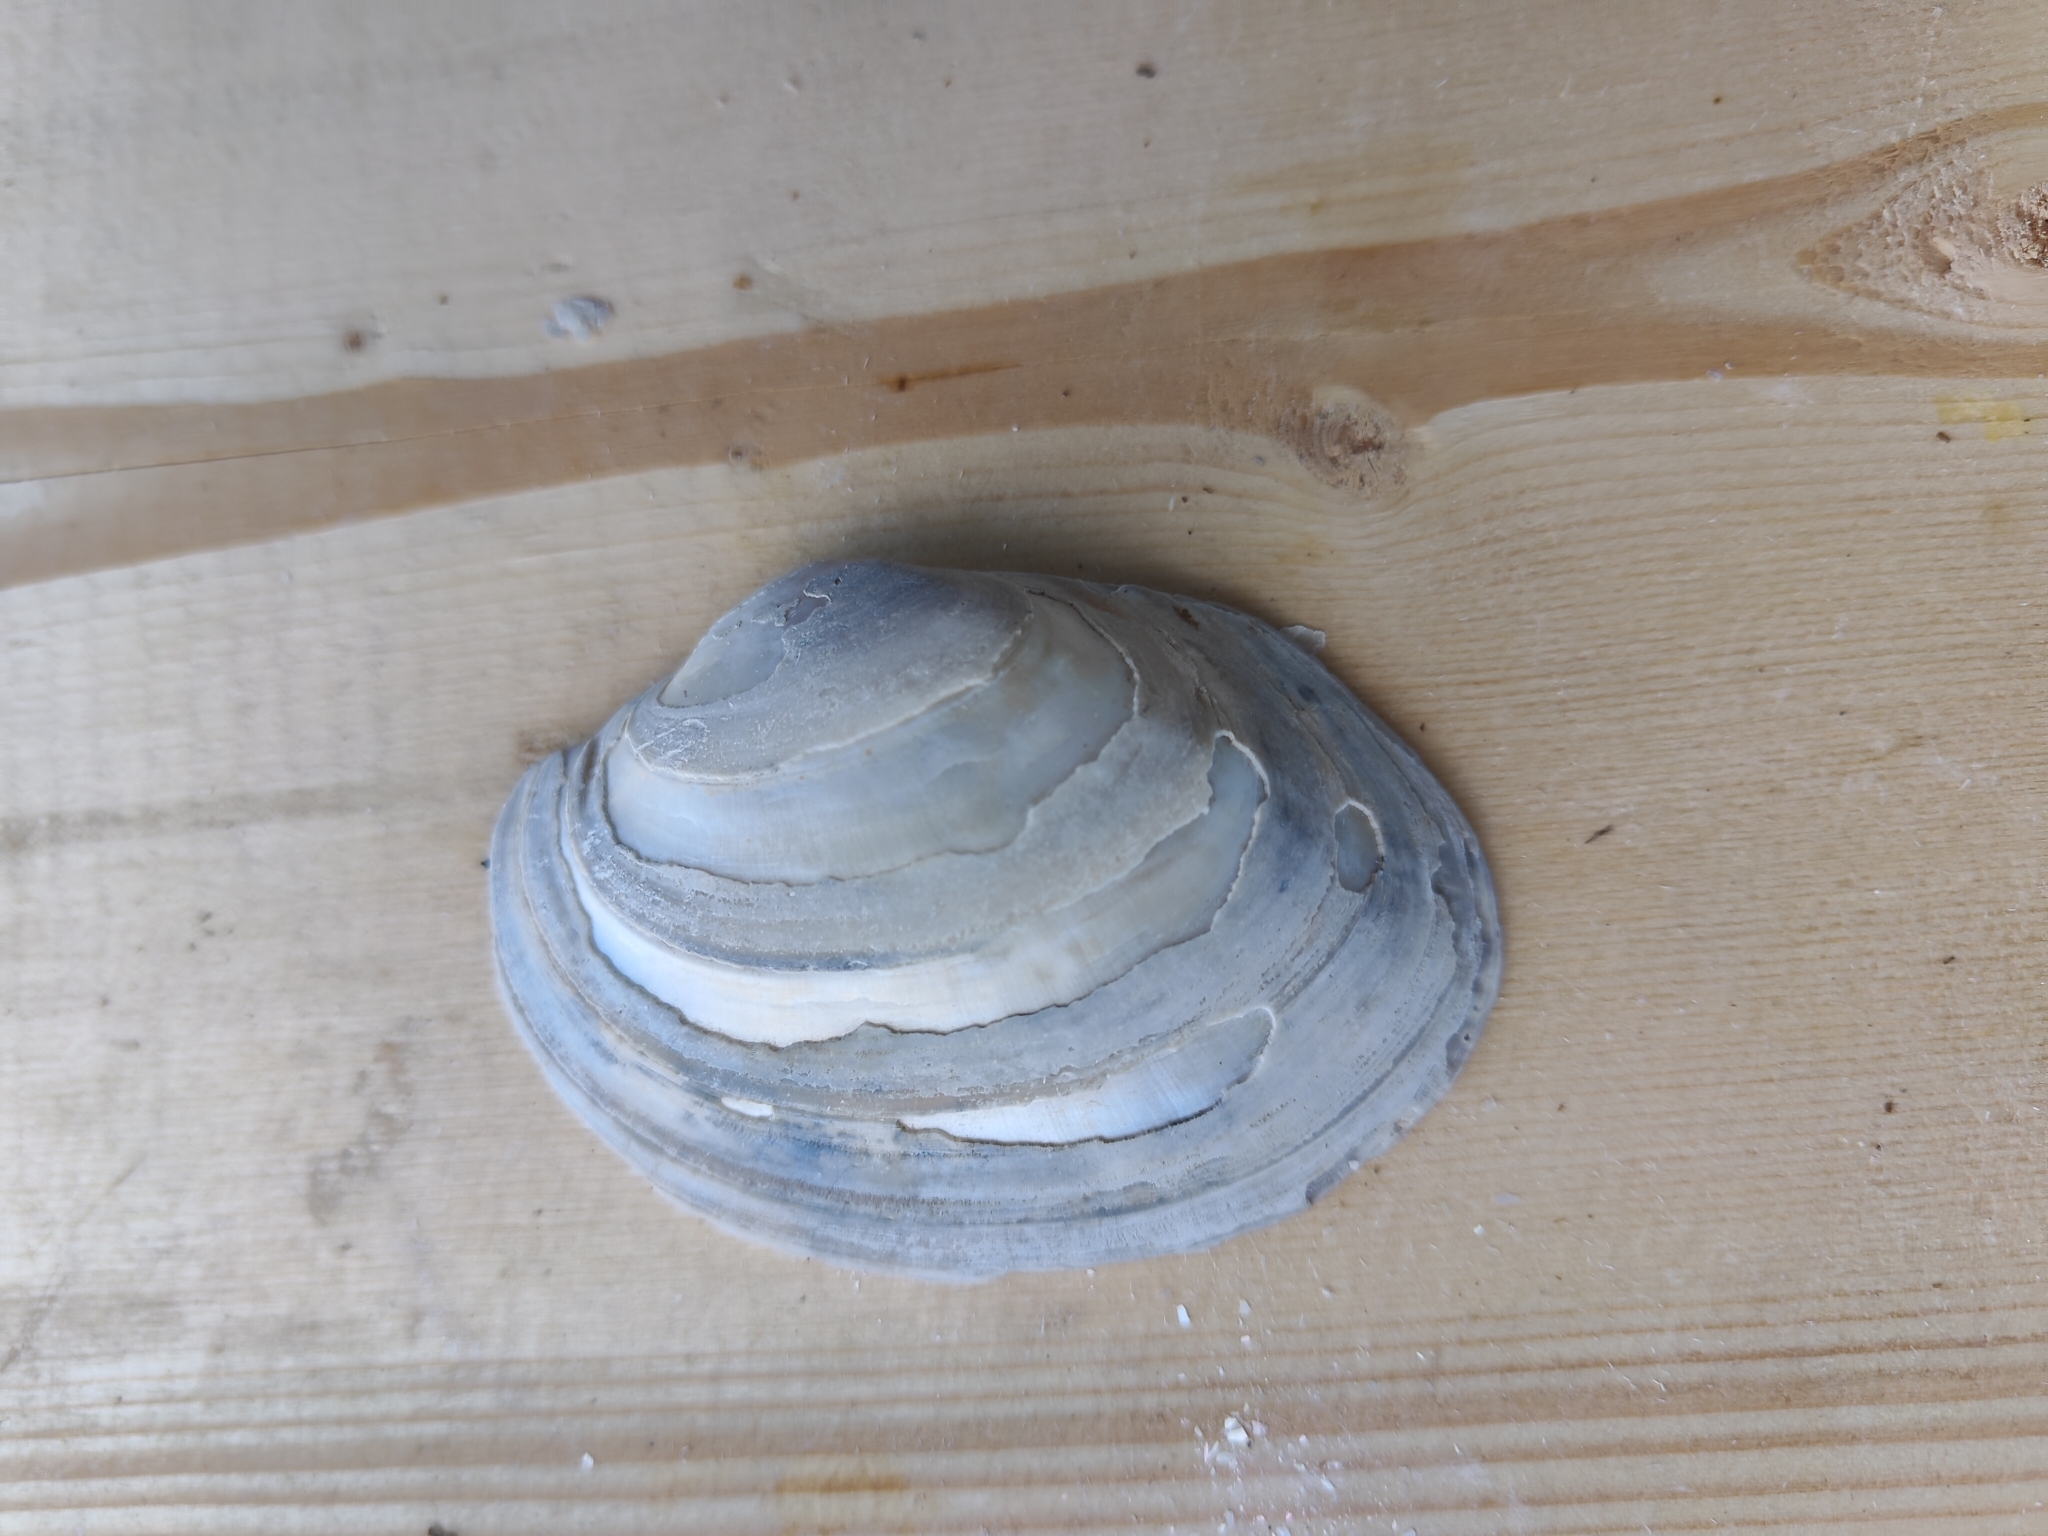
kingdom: Animalia
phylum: Mollusca
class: Bivalvia
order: Unionida
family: Unionidae
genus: Lampsilis
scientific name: Lampsilis cardium
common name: Plain pocketbook
